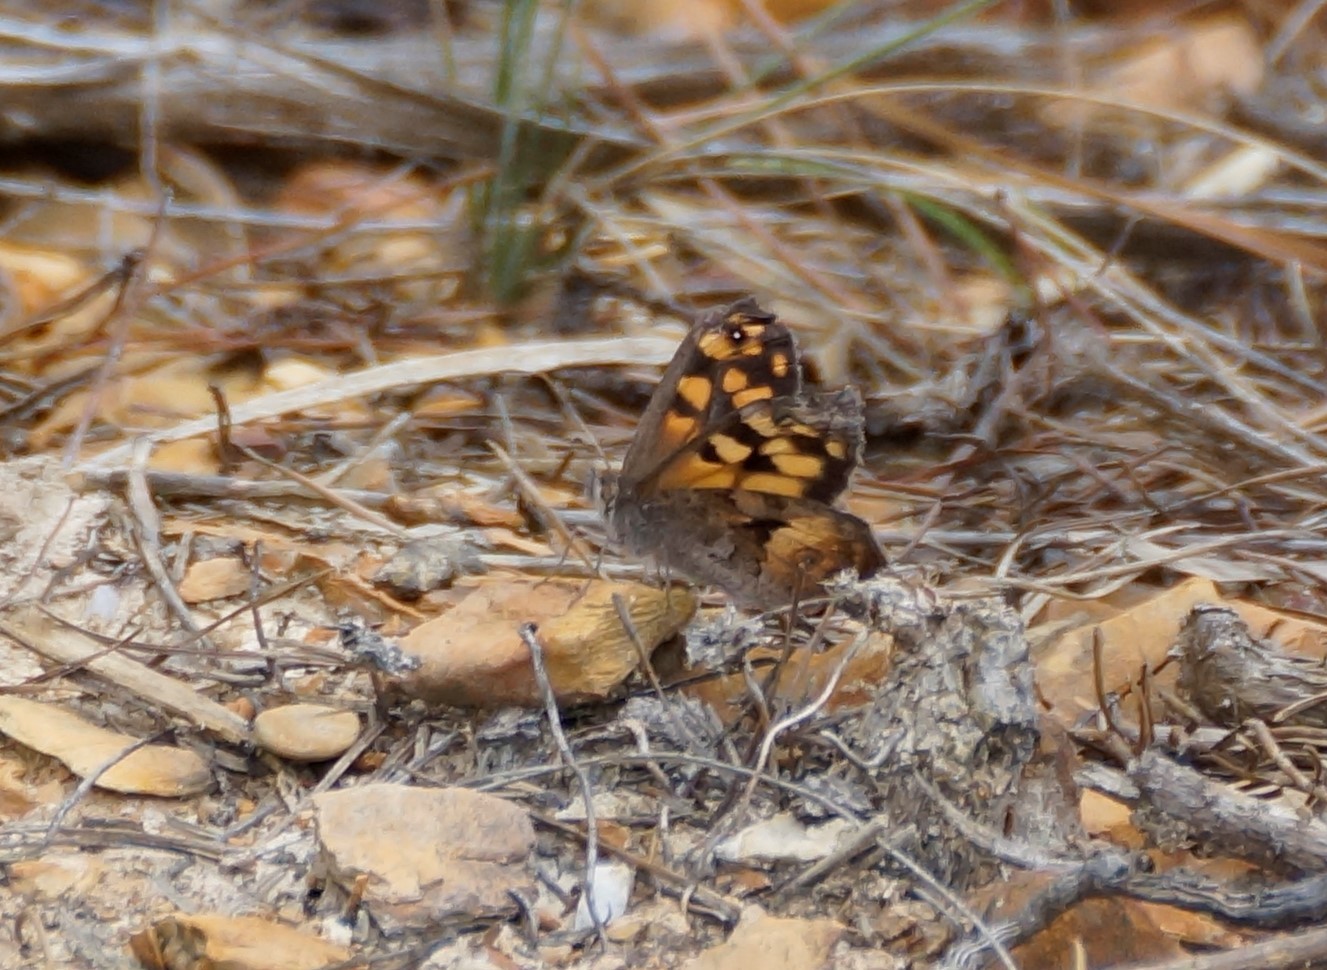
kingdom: Animalia
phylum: Arthropoda
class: Insecta
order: Lepidoptera
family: Nymphalidae
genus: Geitoneura
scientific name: Geitoneura klugii
